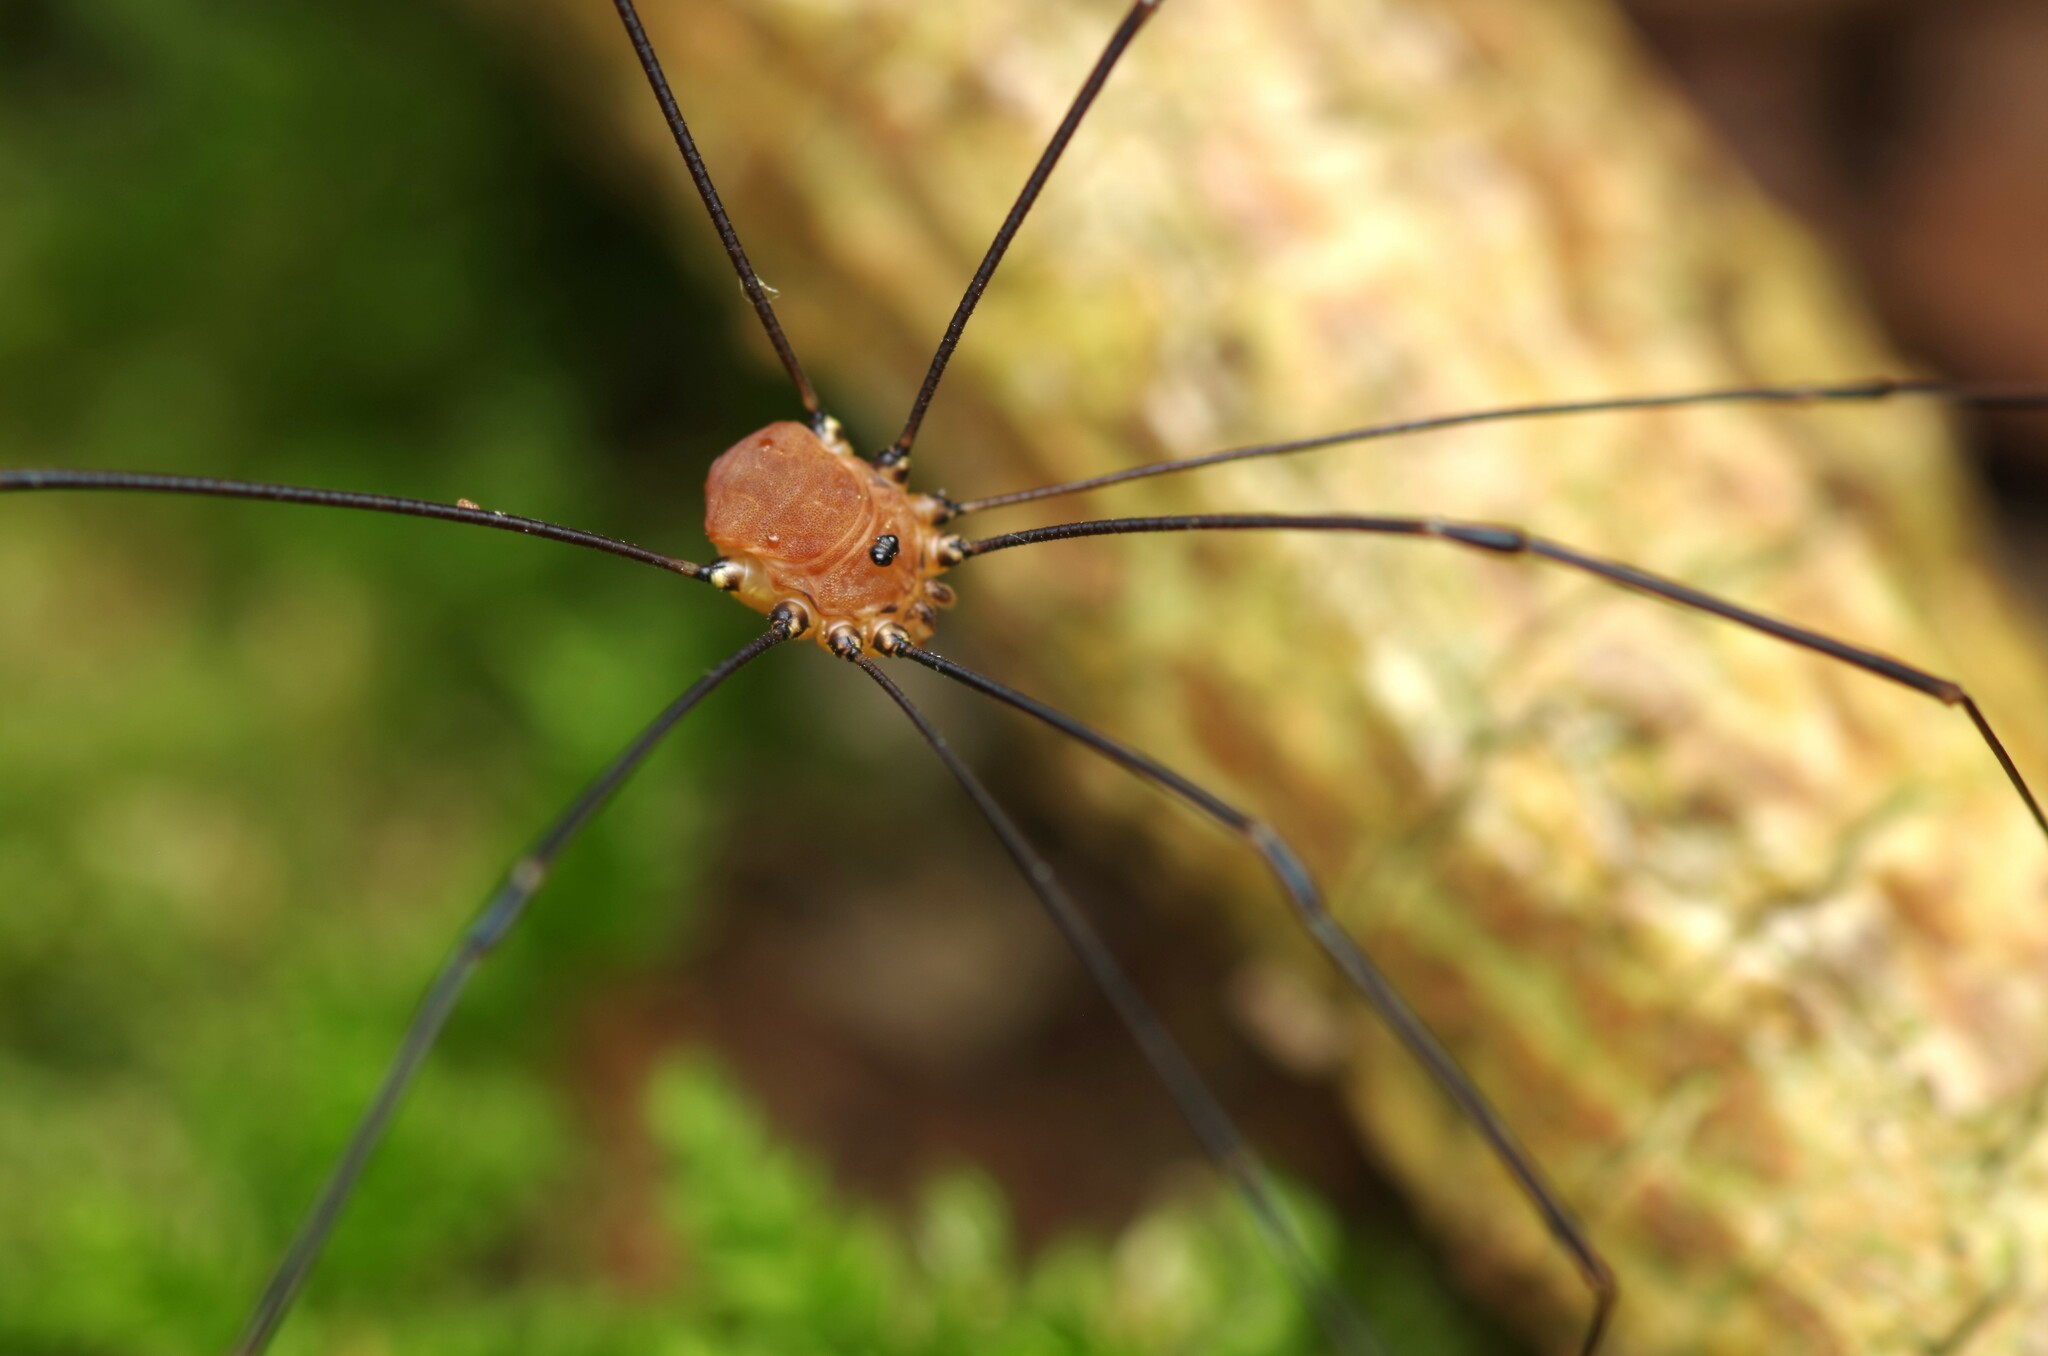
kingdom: Animalia
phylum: Arthropoda
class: Arachnida
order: Opiliones
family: Sclerosomatidae
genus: Leiobunum
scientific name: Leiobunum rotundum
